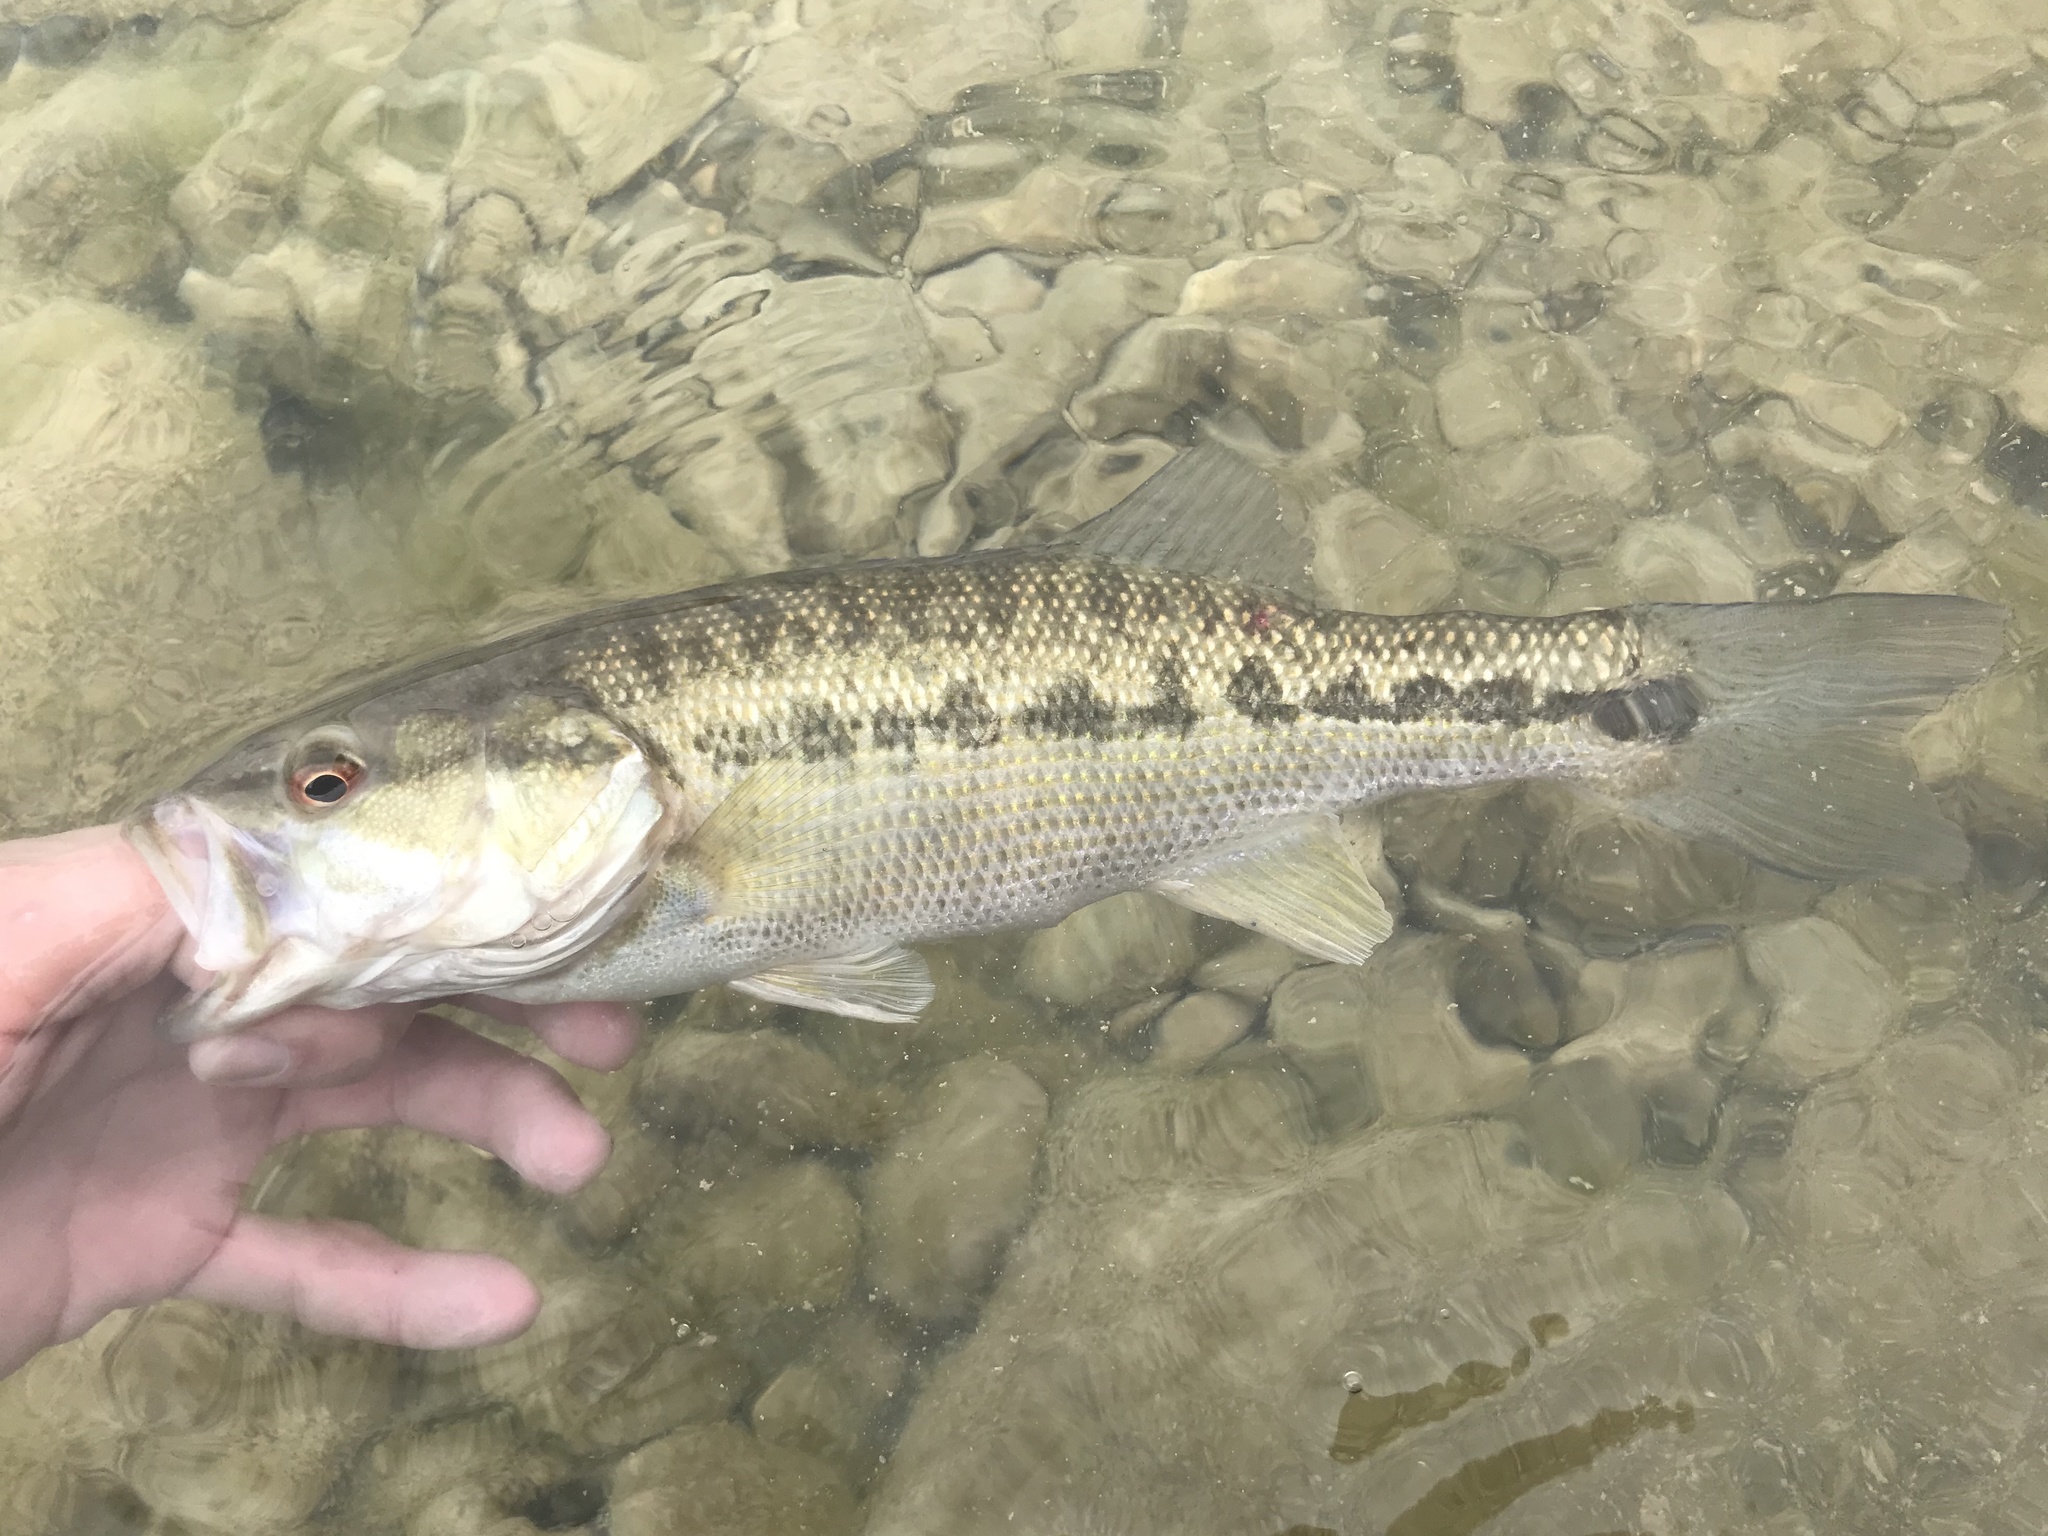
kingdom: Animalia
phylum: Chordata
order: Perciformes
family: Centrarchidae
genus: Micropterus
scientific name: Micropterus treculii
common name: Guadalupe bass
